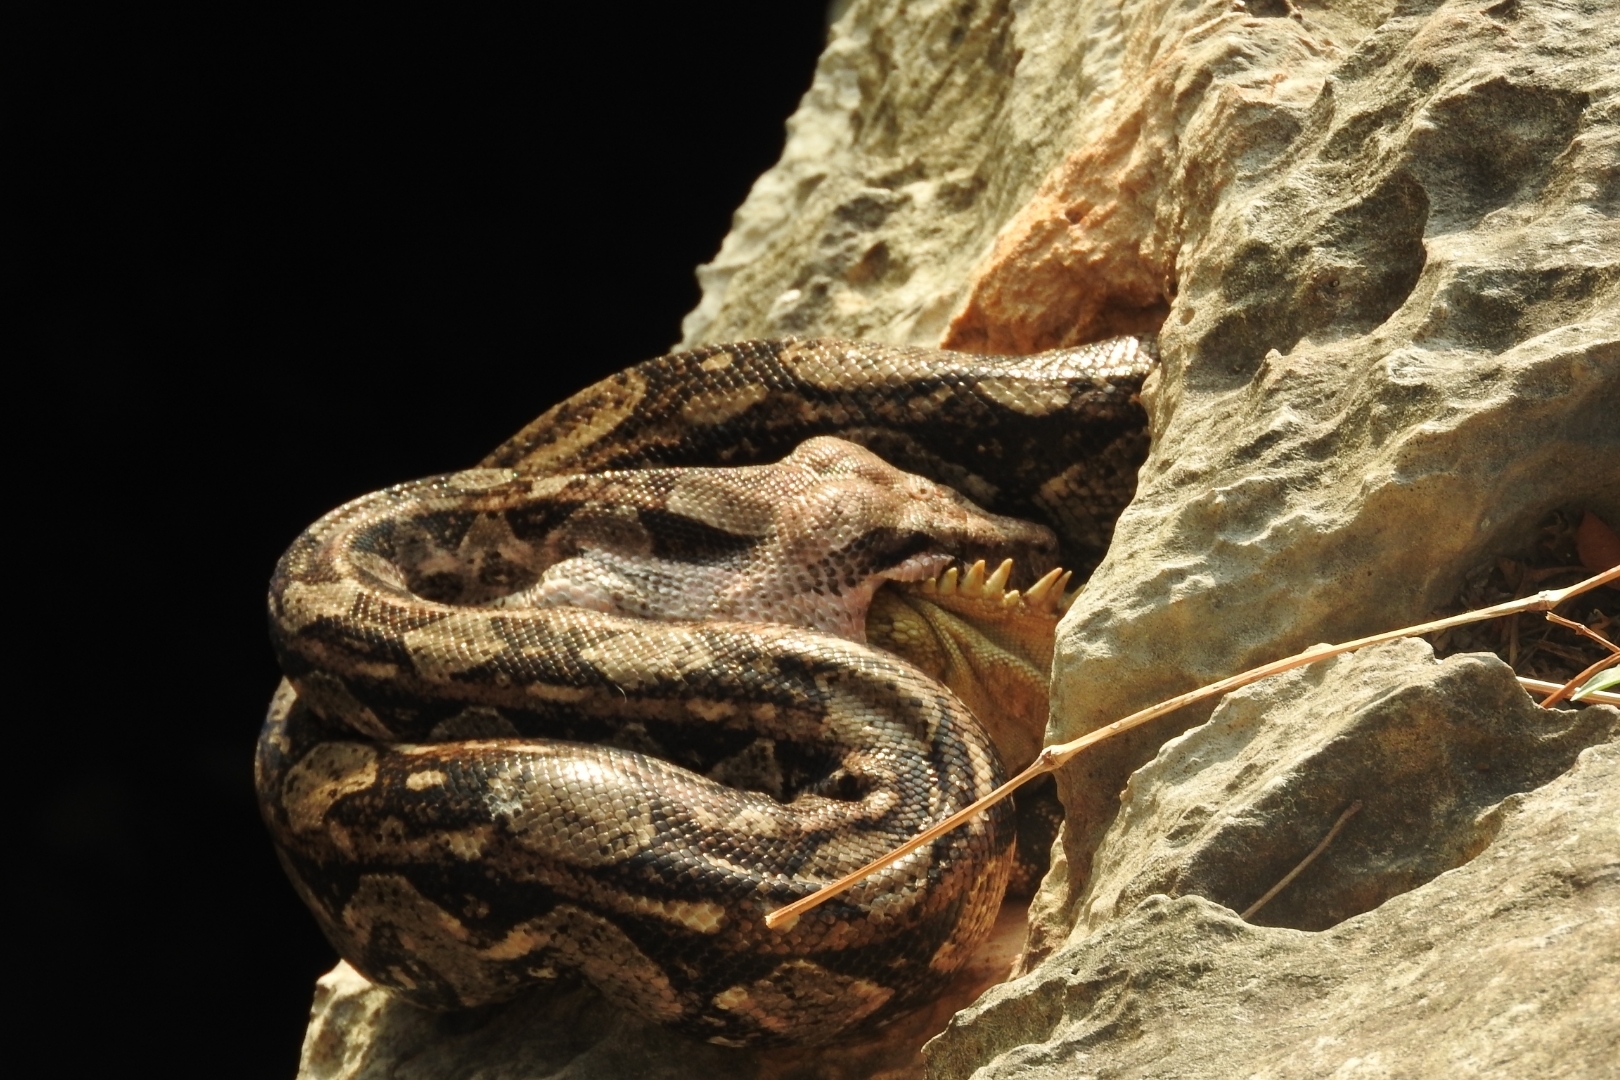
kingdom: Animalia
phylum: Chordata
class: Squamata
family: Boidae
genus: Boa
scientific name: Boa imperator
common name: Central american boa
